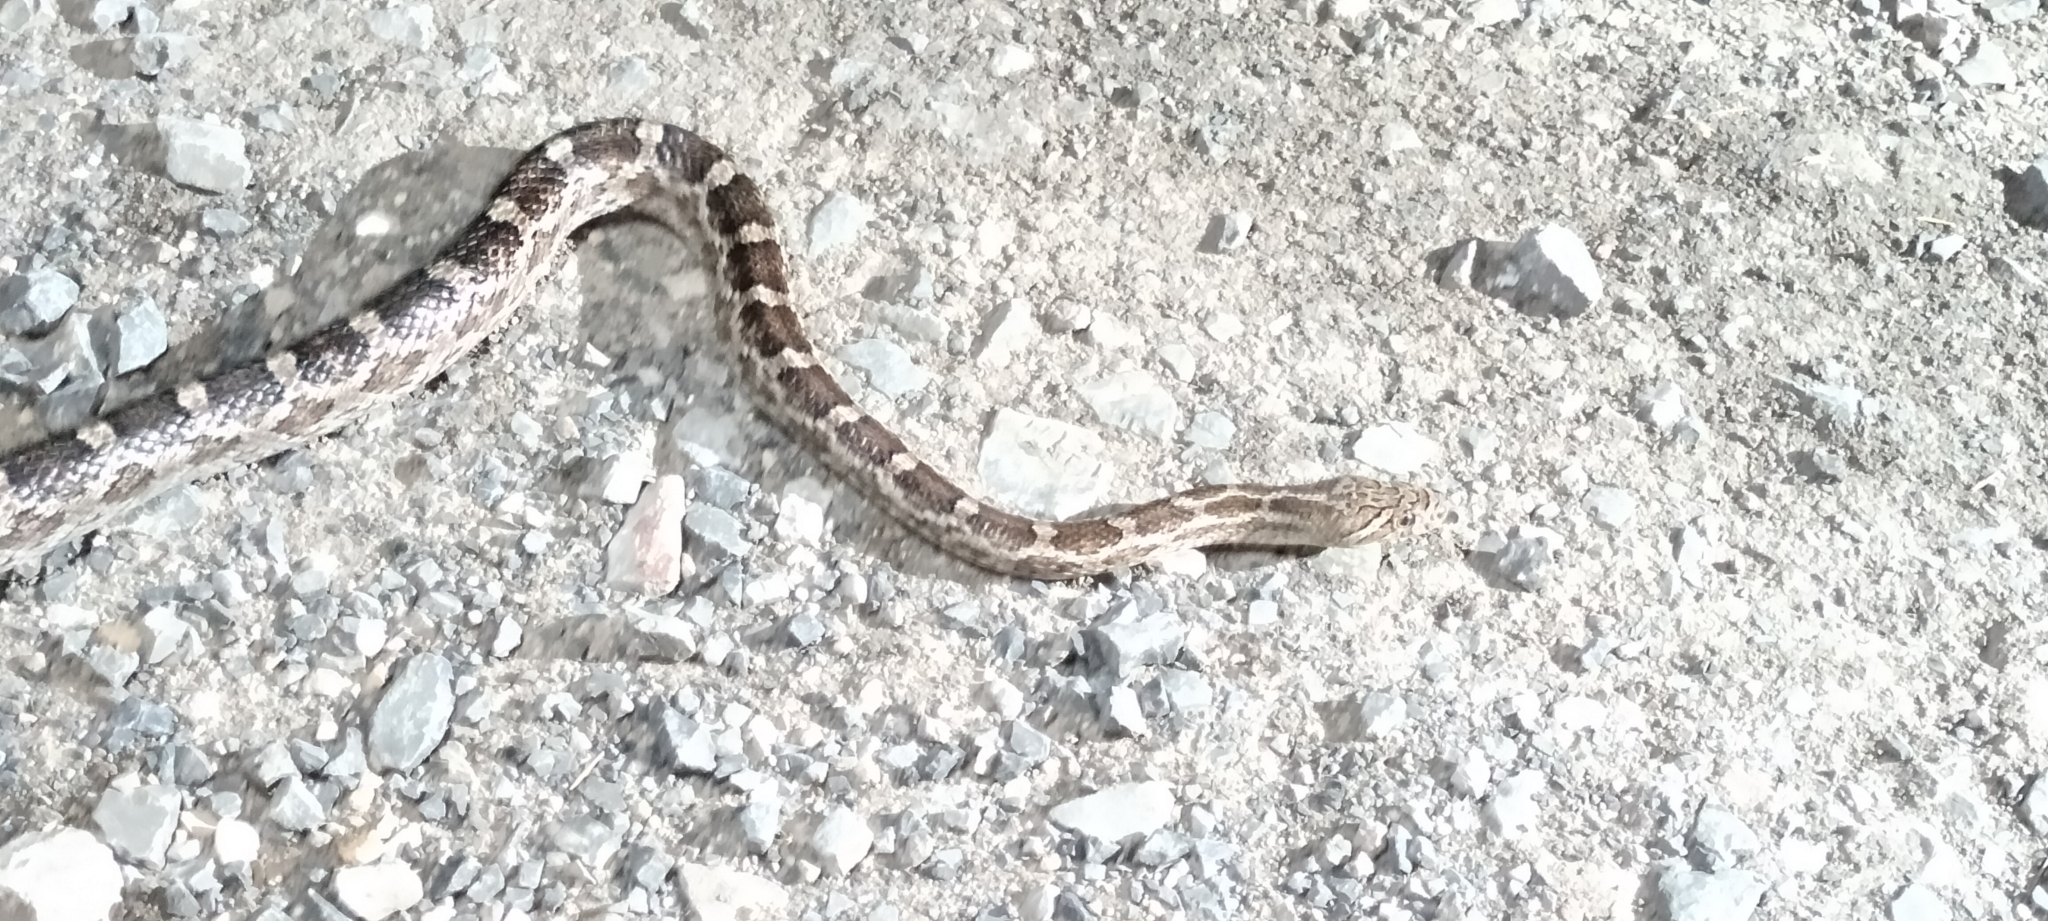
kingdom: Animalia
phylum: Chordata
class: Squamata
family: Colubridae
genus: Pantherophis
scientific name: Pantherophis emoryi
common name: Great plains rat snake
